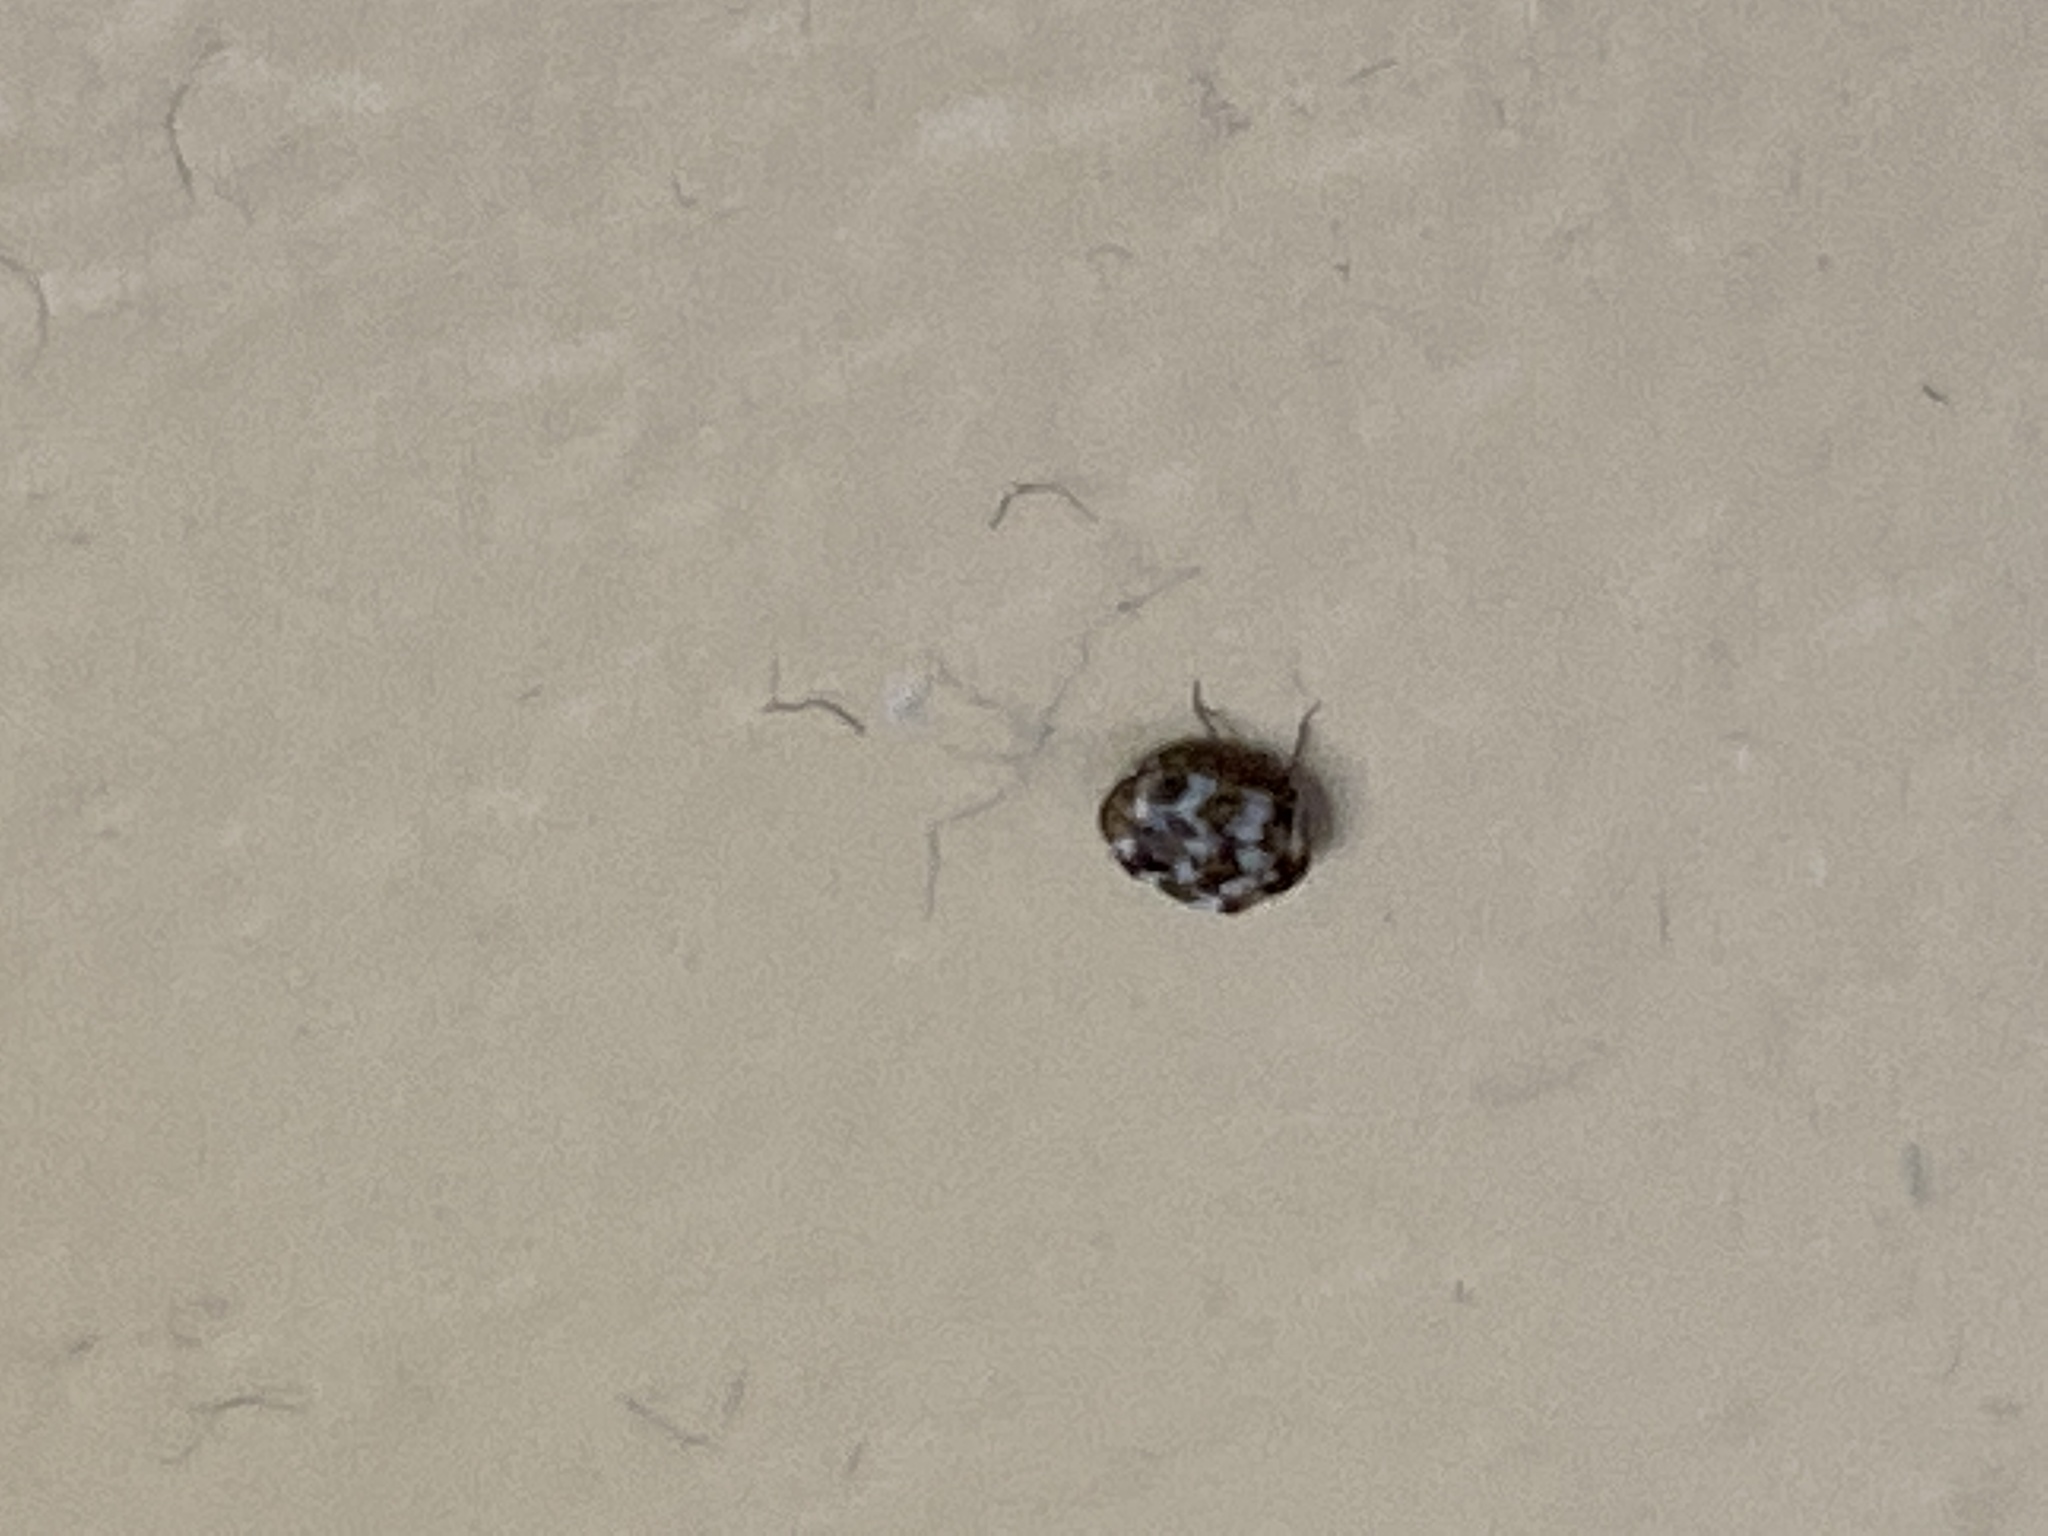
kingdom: Animalia
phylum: Arthropoda
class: Insecta
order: Coleoptera
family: Dermestidae
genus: Anthrenus
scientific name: Anthrenus verbasci
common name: Varied carpet beetle
